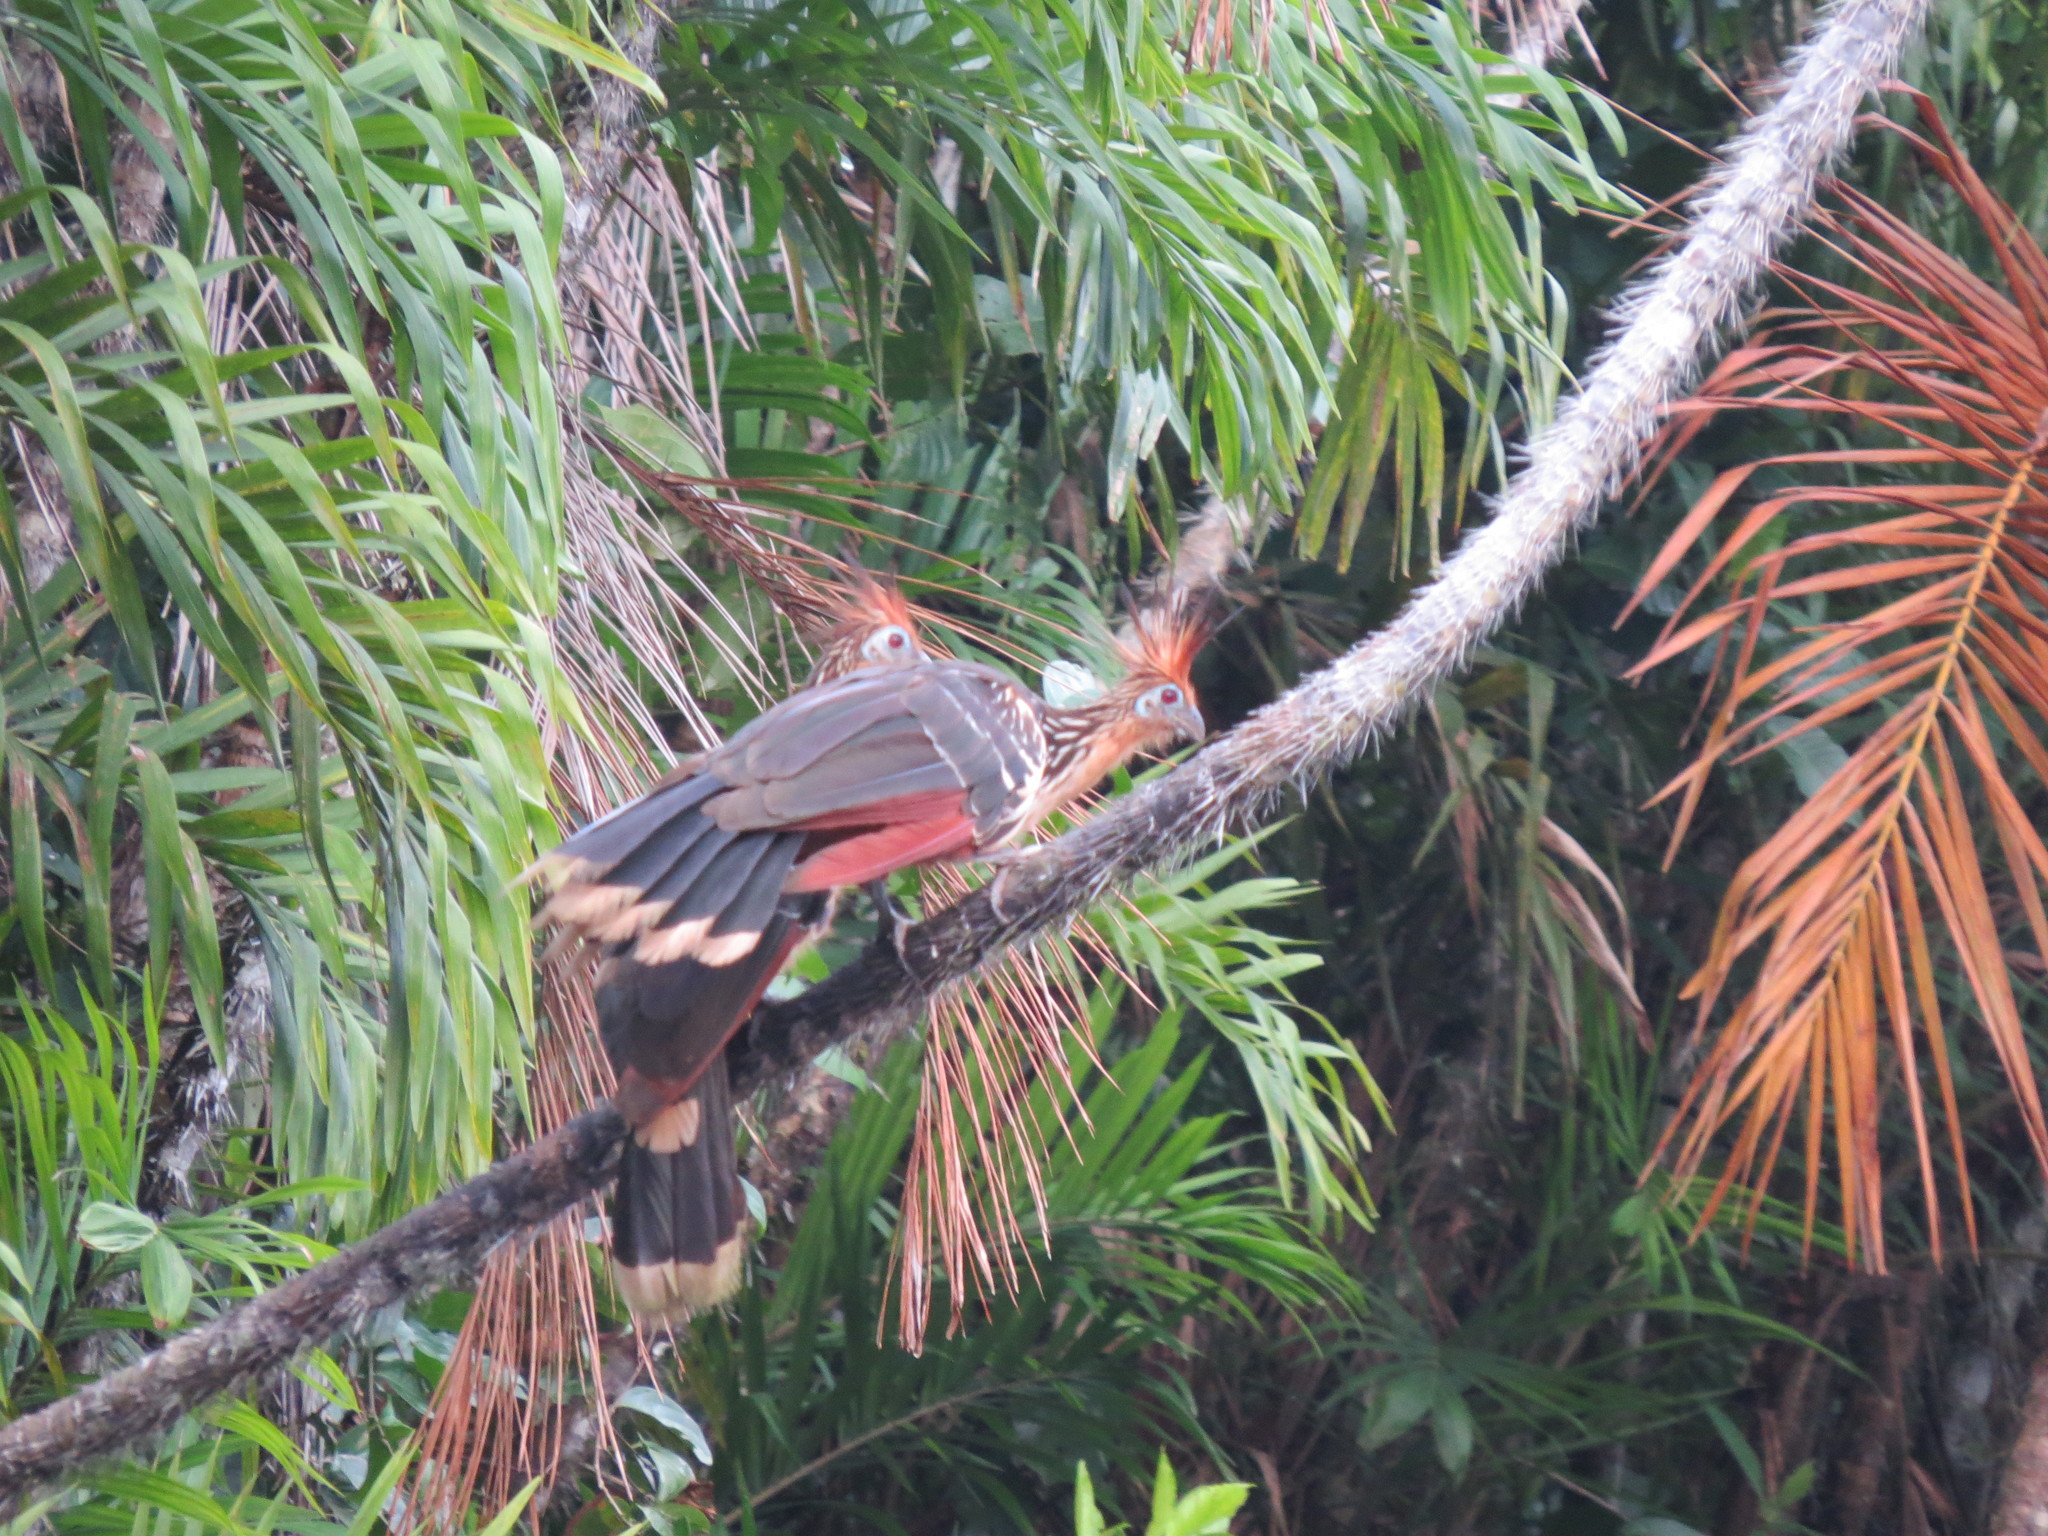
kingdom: Animalia
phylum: Chordata
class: Aves
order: Opisthocomiformes
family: Opisthocomidae
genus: Opisthocomus
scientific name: Opisthocomus hoazin
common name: Hoatzin
